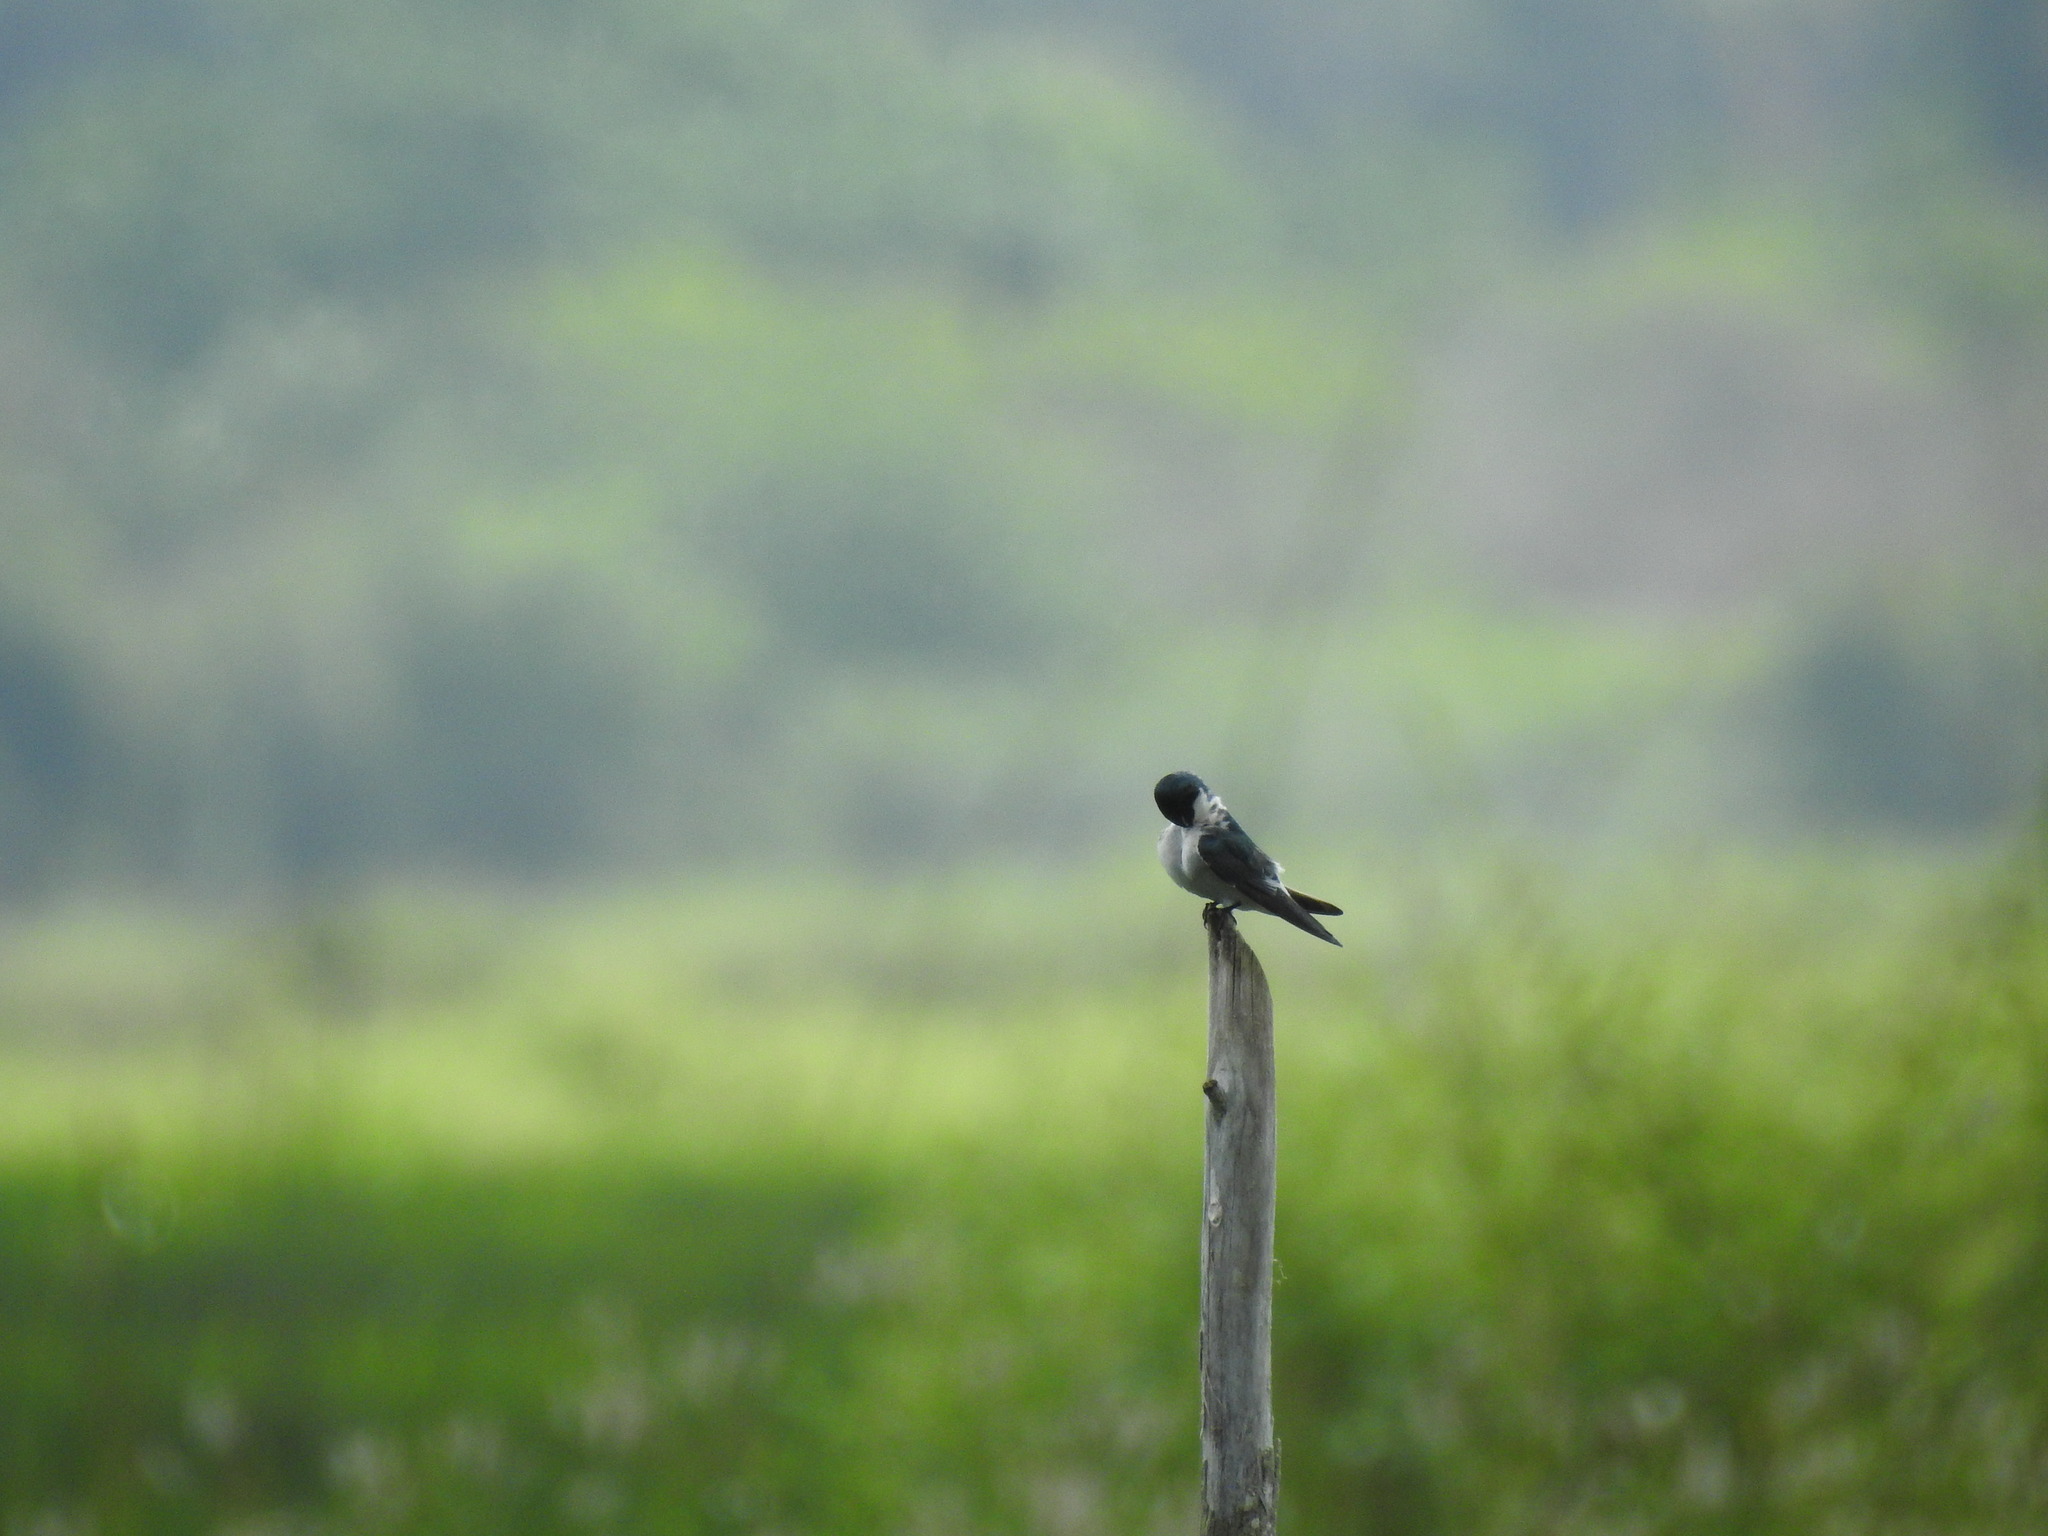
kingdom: Animalia
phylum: Chordata
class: Aves
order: Passeriformes
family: Hirundinidae
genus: Tachycineta
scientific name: Tachycineta albilinea
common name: Mangrove swallow
